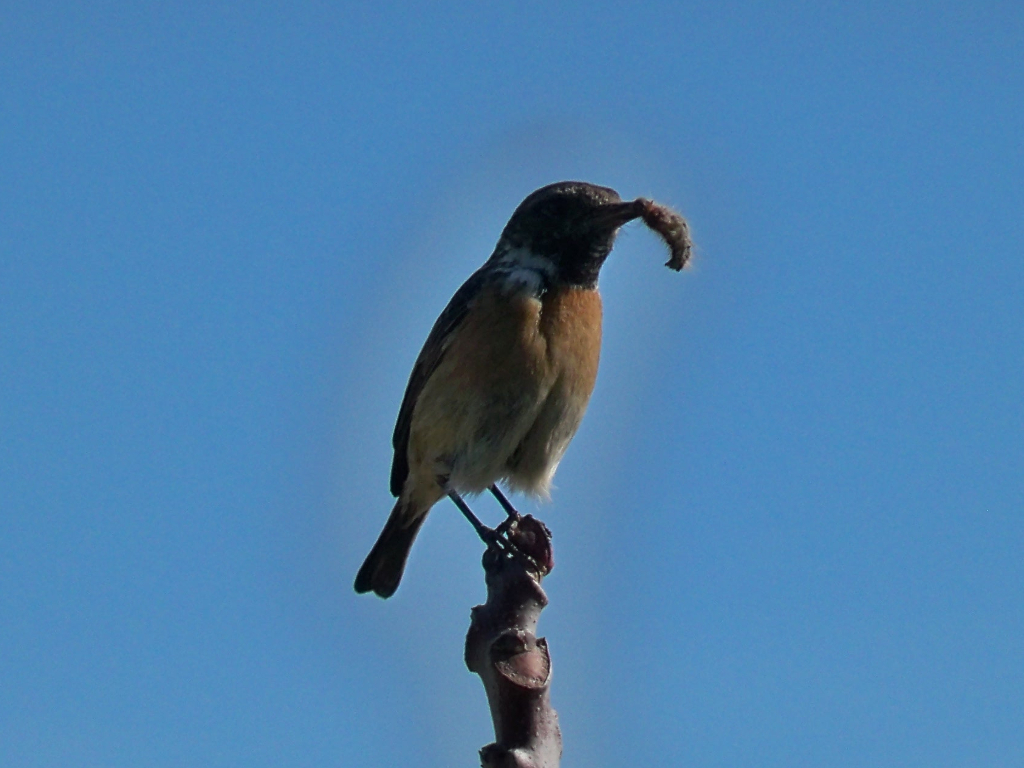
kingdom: Animalia
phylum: Chordata
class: Aves
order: Passeriformes
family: Muscicapidae
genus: Saxicola
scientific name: Saxicola rubicola
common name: European stonechat
